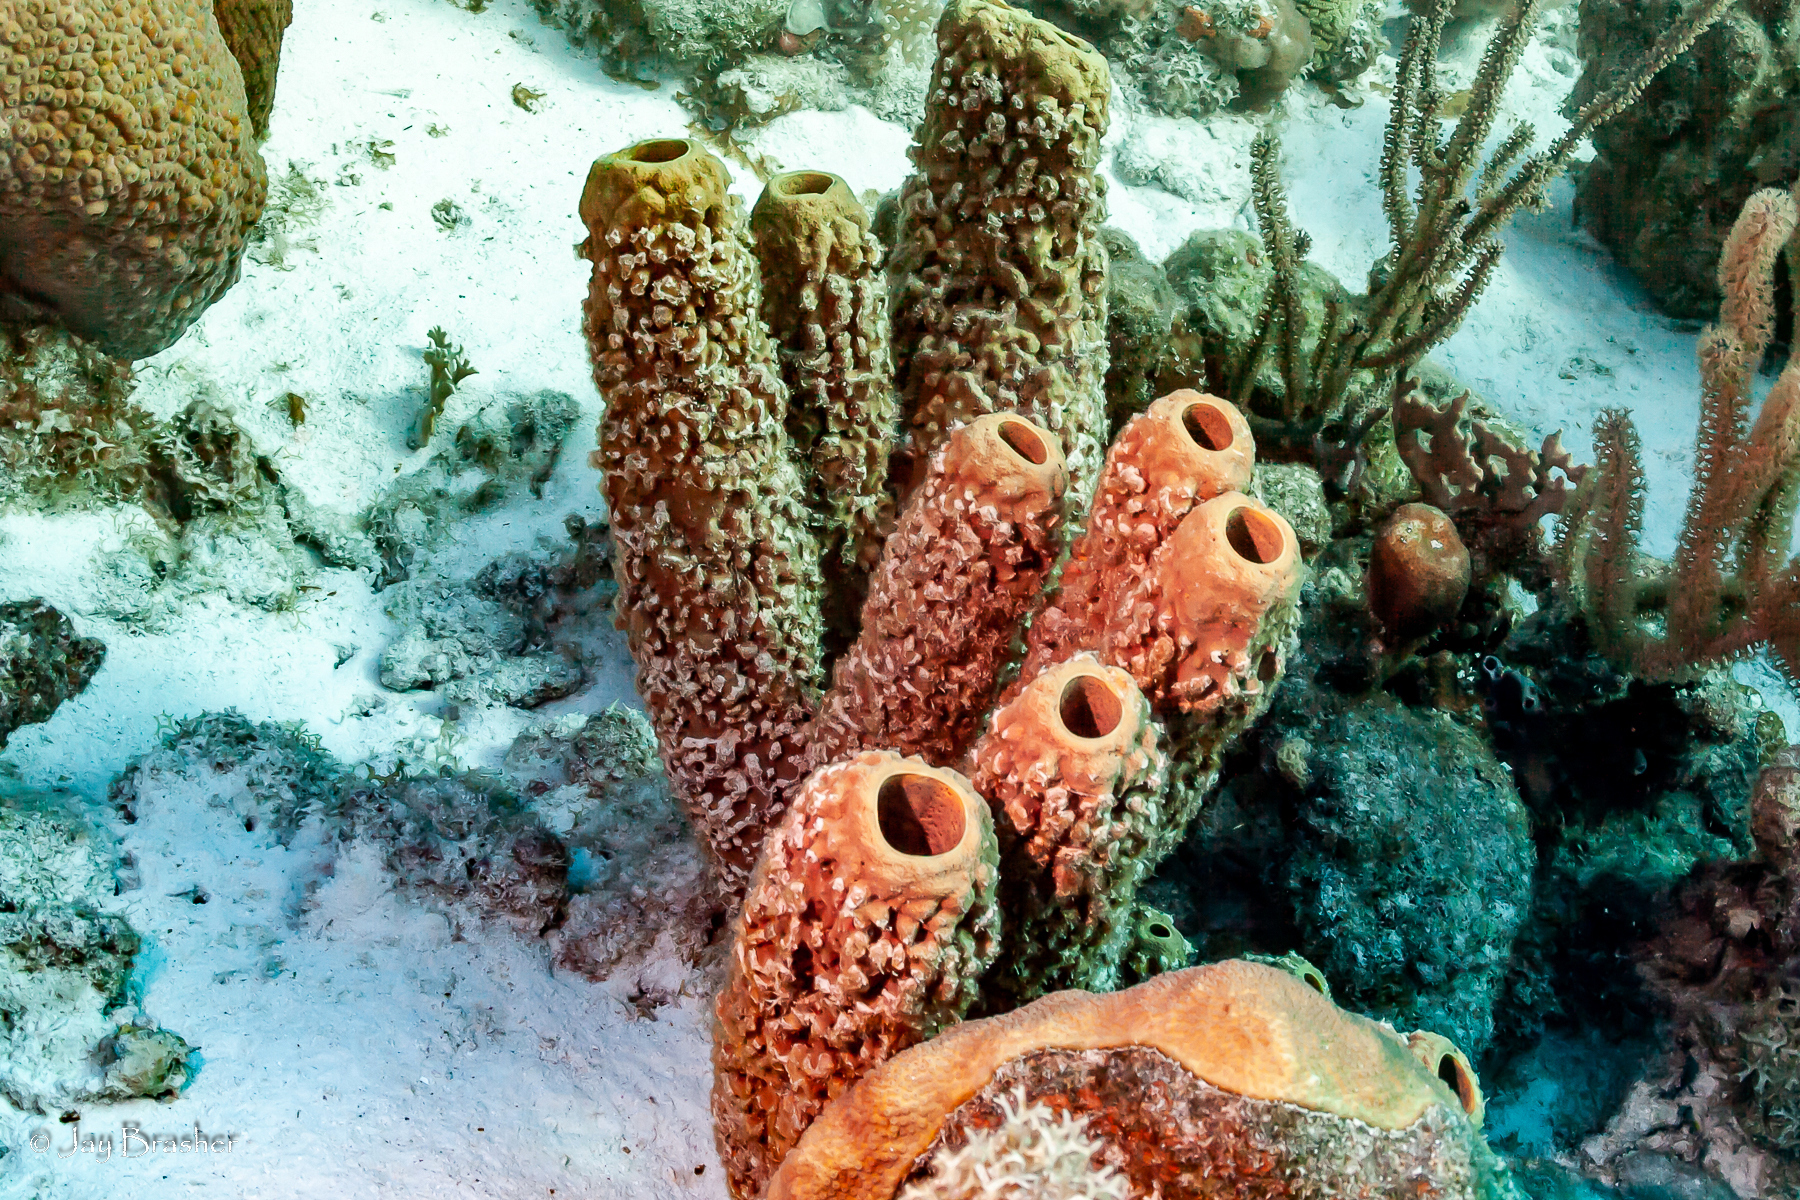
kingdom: Animalia
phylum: Porifera
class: Demospongiae
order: Verongiida
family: Aplysinidae
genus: Aplysina
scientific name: Aplysina archeri
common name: Stove-pipe sponge
